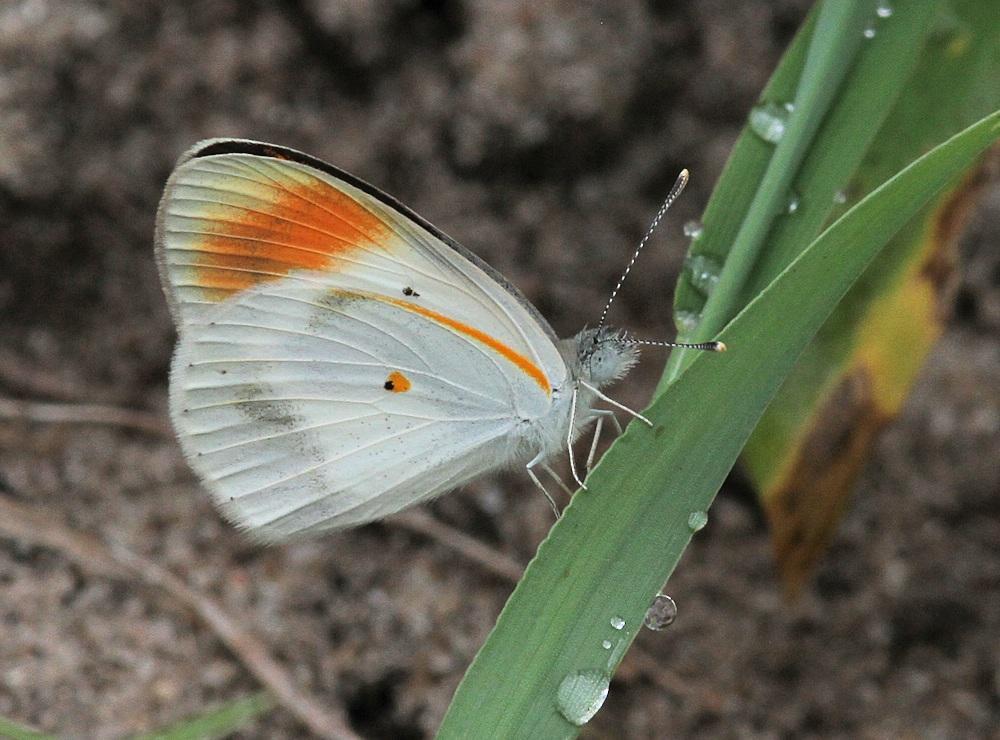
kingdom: Animalia
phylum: Arthropoda
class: Insecta
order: Lepidoptera
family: Pieridae
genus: Colotis
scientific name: Colotis evagore
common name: Desert orange-tip
